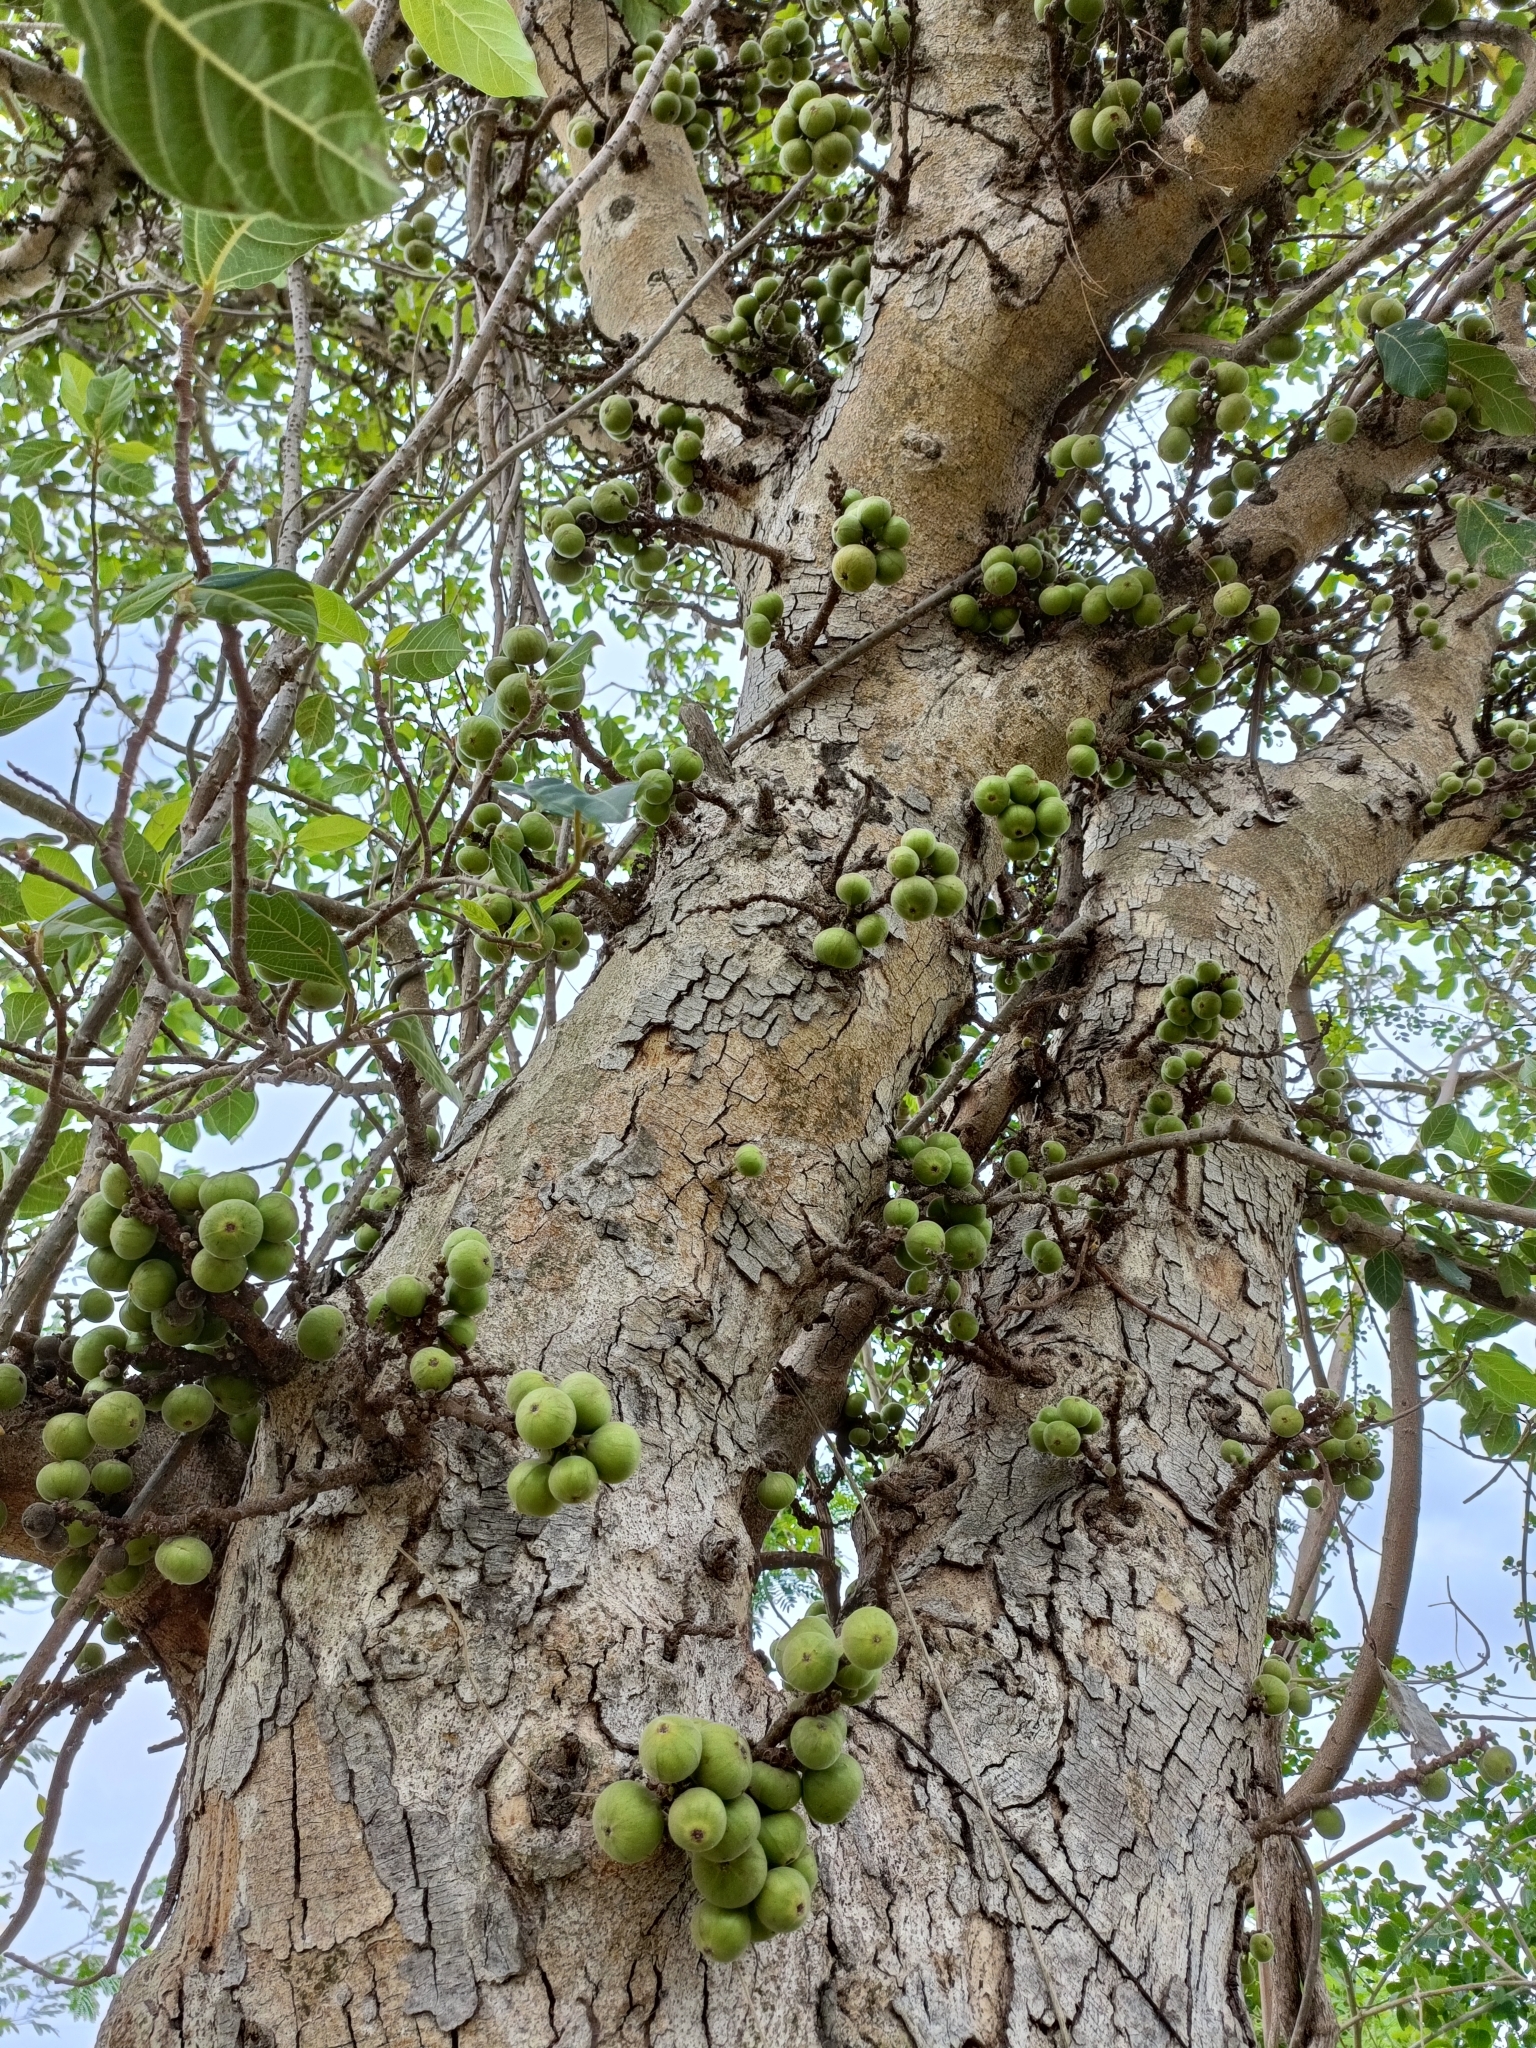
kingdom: Plantae
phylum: Tracheophyta
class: Magnoliopsida
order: Rosales
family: Moraceae
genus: Ficus
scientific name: Ficus racemosa
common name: Cluster fig
